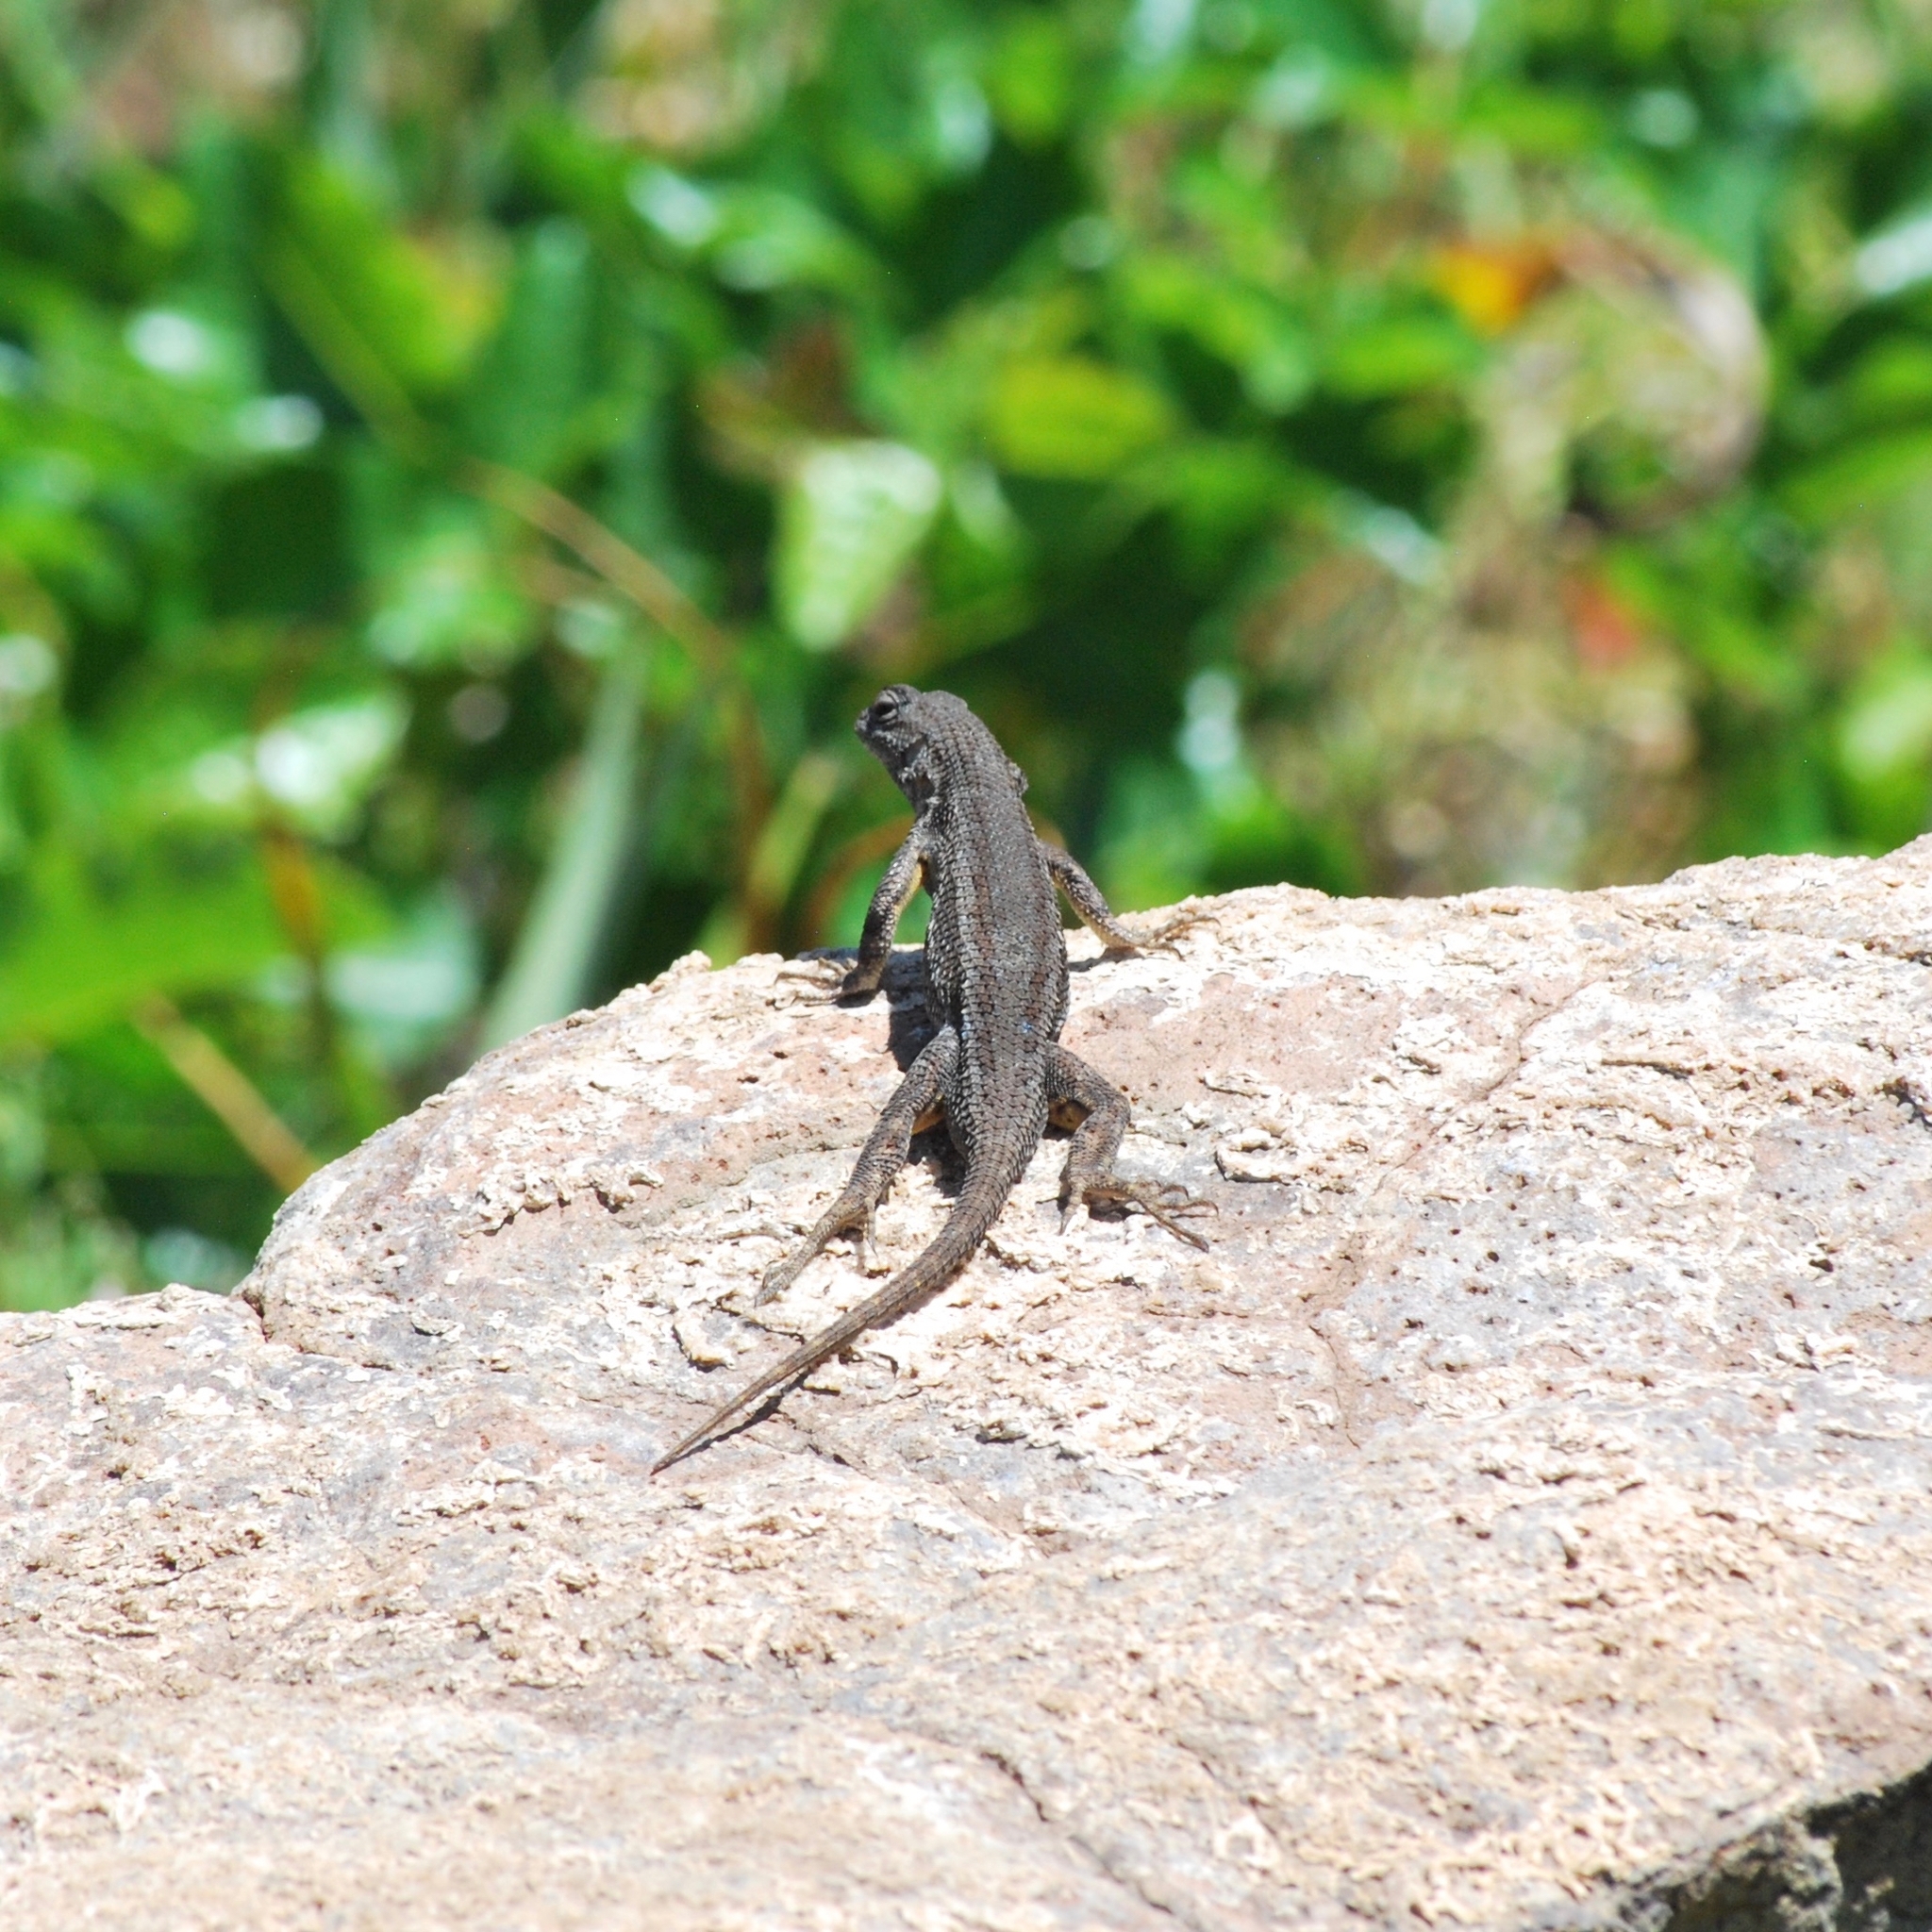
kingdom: Animalia
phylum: Chordata
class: Squamata
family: Phrynosomatidae
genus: Sceloporus
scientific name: Sceloporus occidentalis
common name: Western fence lizard
